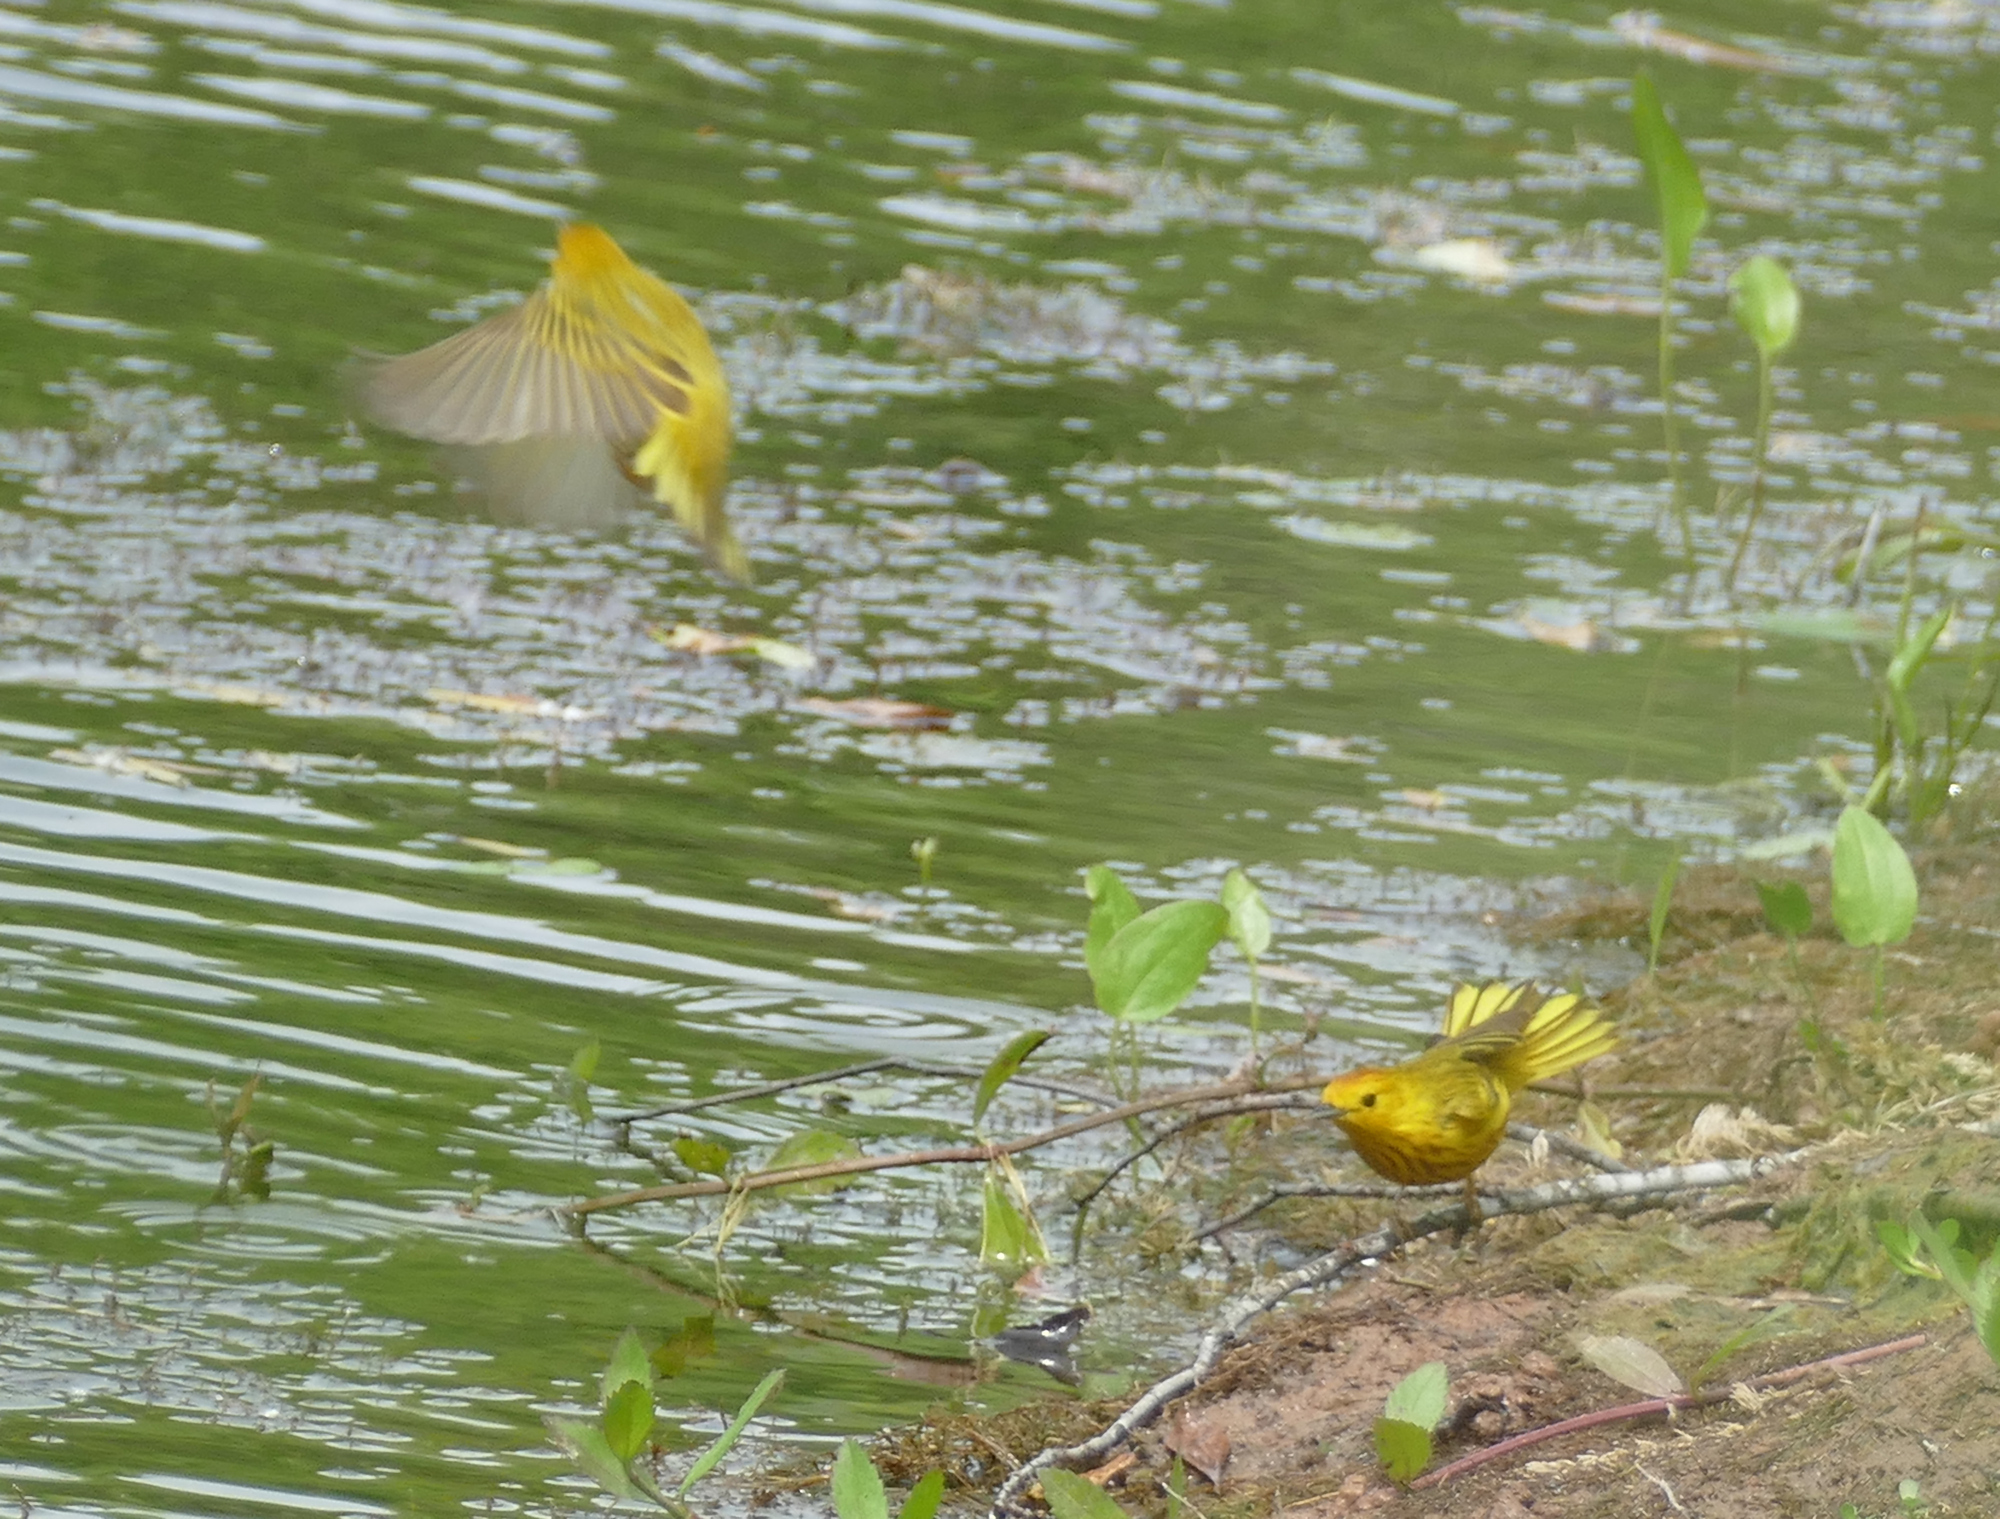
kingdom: Animalia
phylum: Chordata
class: Aves
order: Passeriformes
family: Parulidae
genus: Setophaga
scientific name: Setophaga petechia
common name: Yellow warbler
